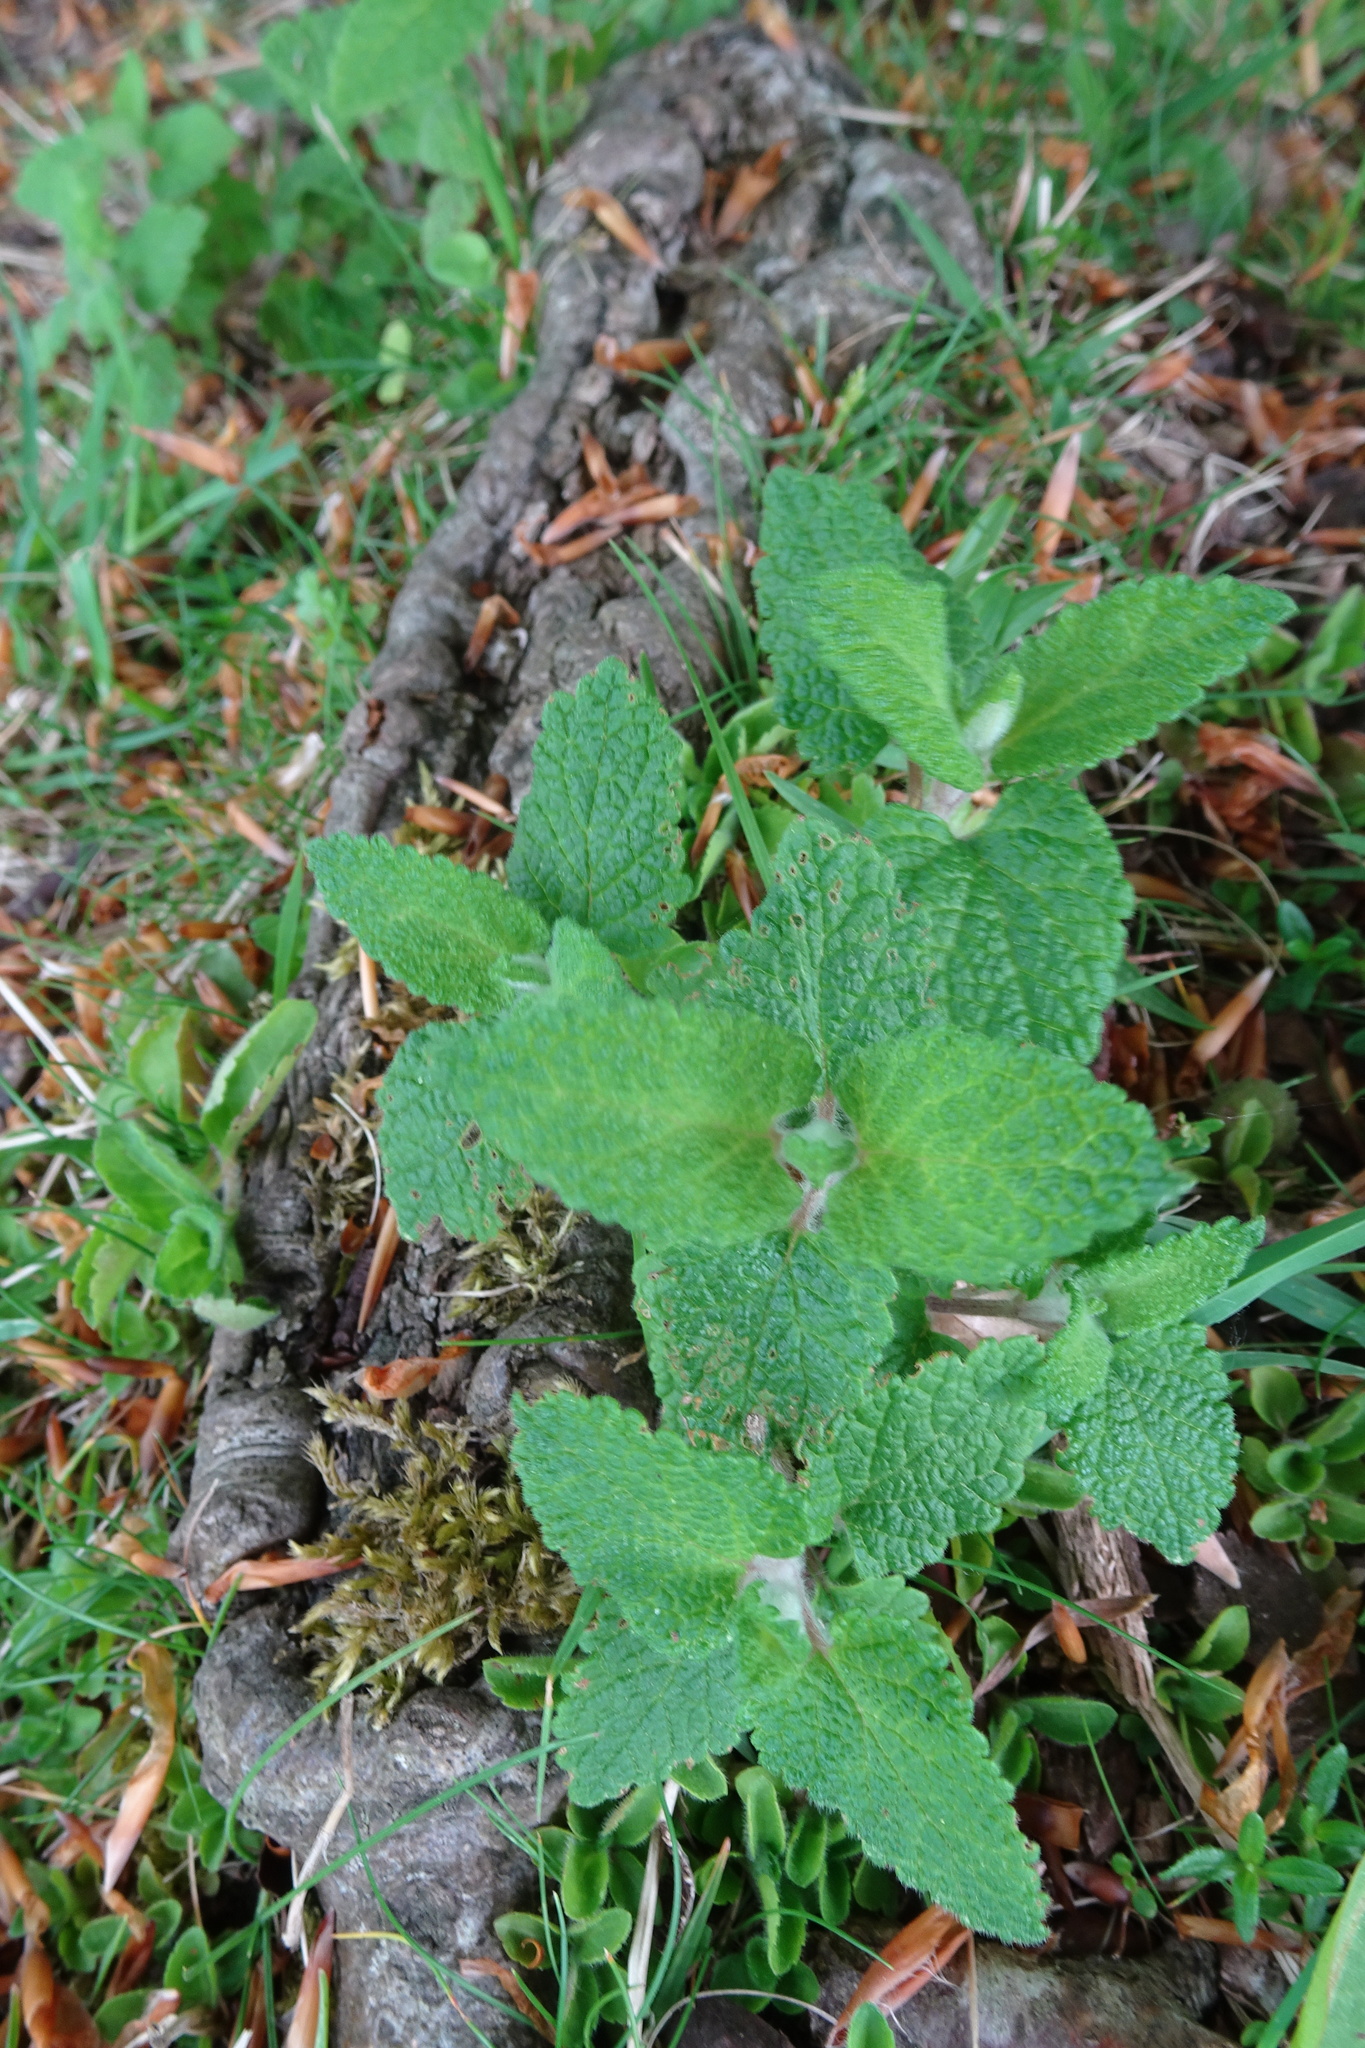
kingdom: Plantae
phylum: Tracheophyta
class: Magnoliopsida
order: Lamiales
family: Lamiaceae
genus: Teucrium
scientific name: Teucrium scorodonia
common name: Woodland germander
